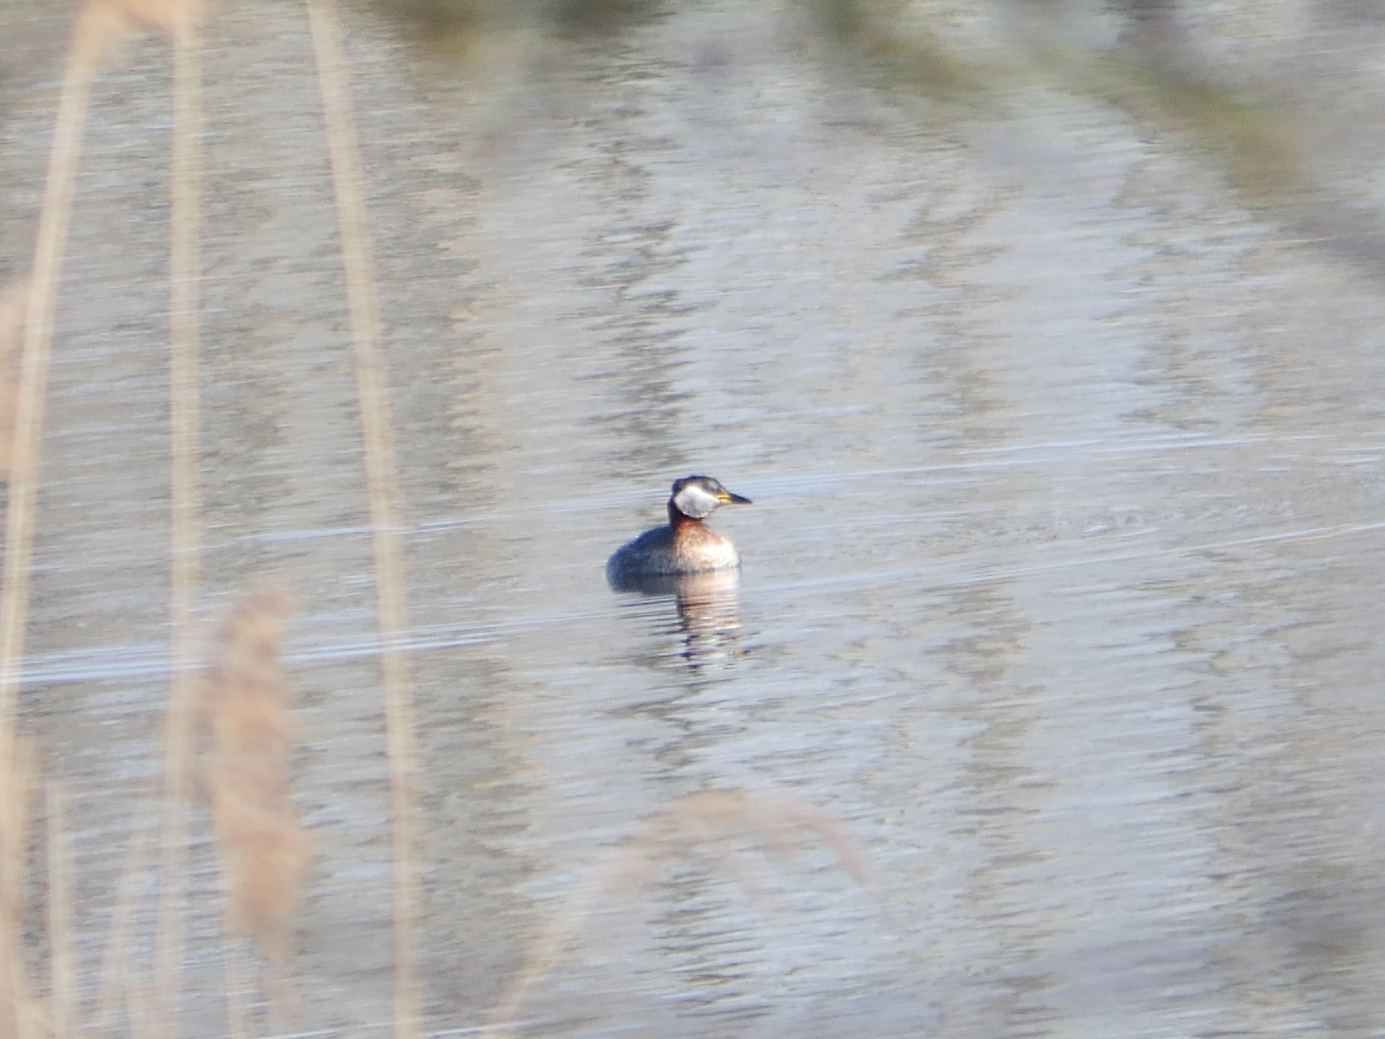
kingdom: Animalia
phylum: Chordata
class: Aves
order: Podicipediformes
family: Podicipedidae
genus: Podiceps
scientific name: Podiceps grisegena
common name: Red-necked grebe
